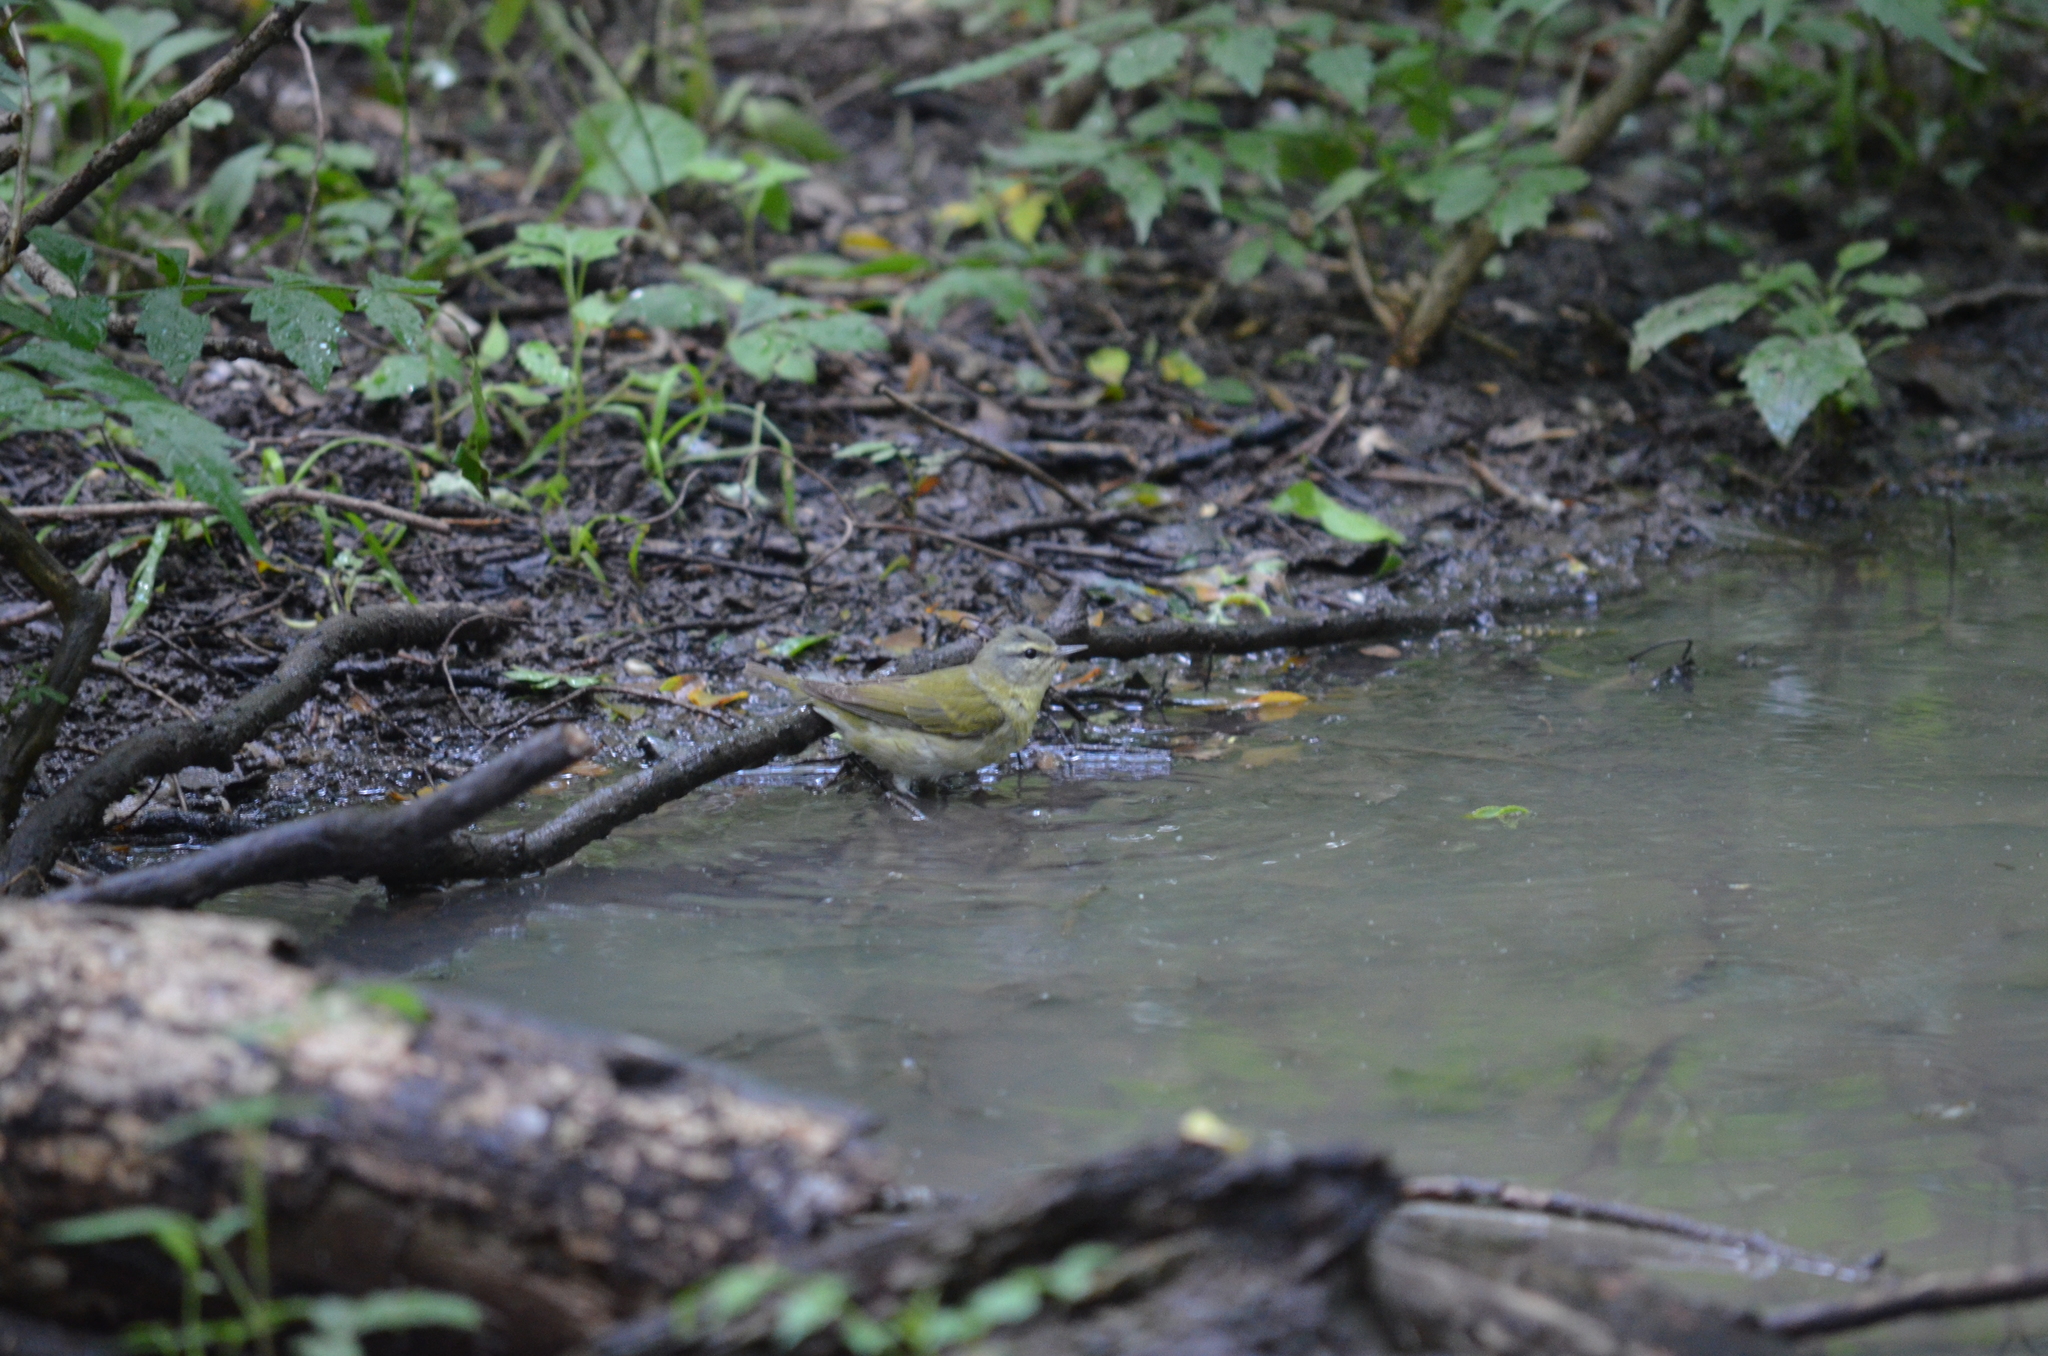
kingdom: Animalia
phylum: Chordata
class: Aves
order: Passeriformes
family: Parulidae
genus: Leiothlypis
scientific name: Leiothlypis peregrina
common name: Tennessee warbler
